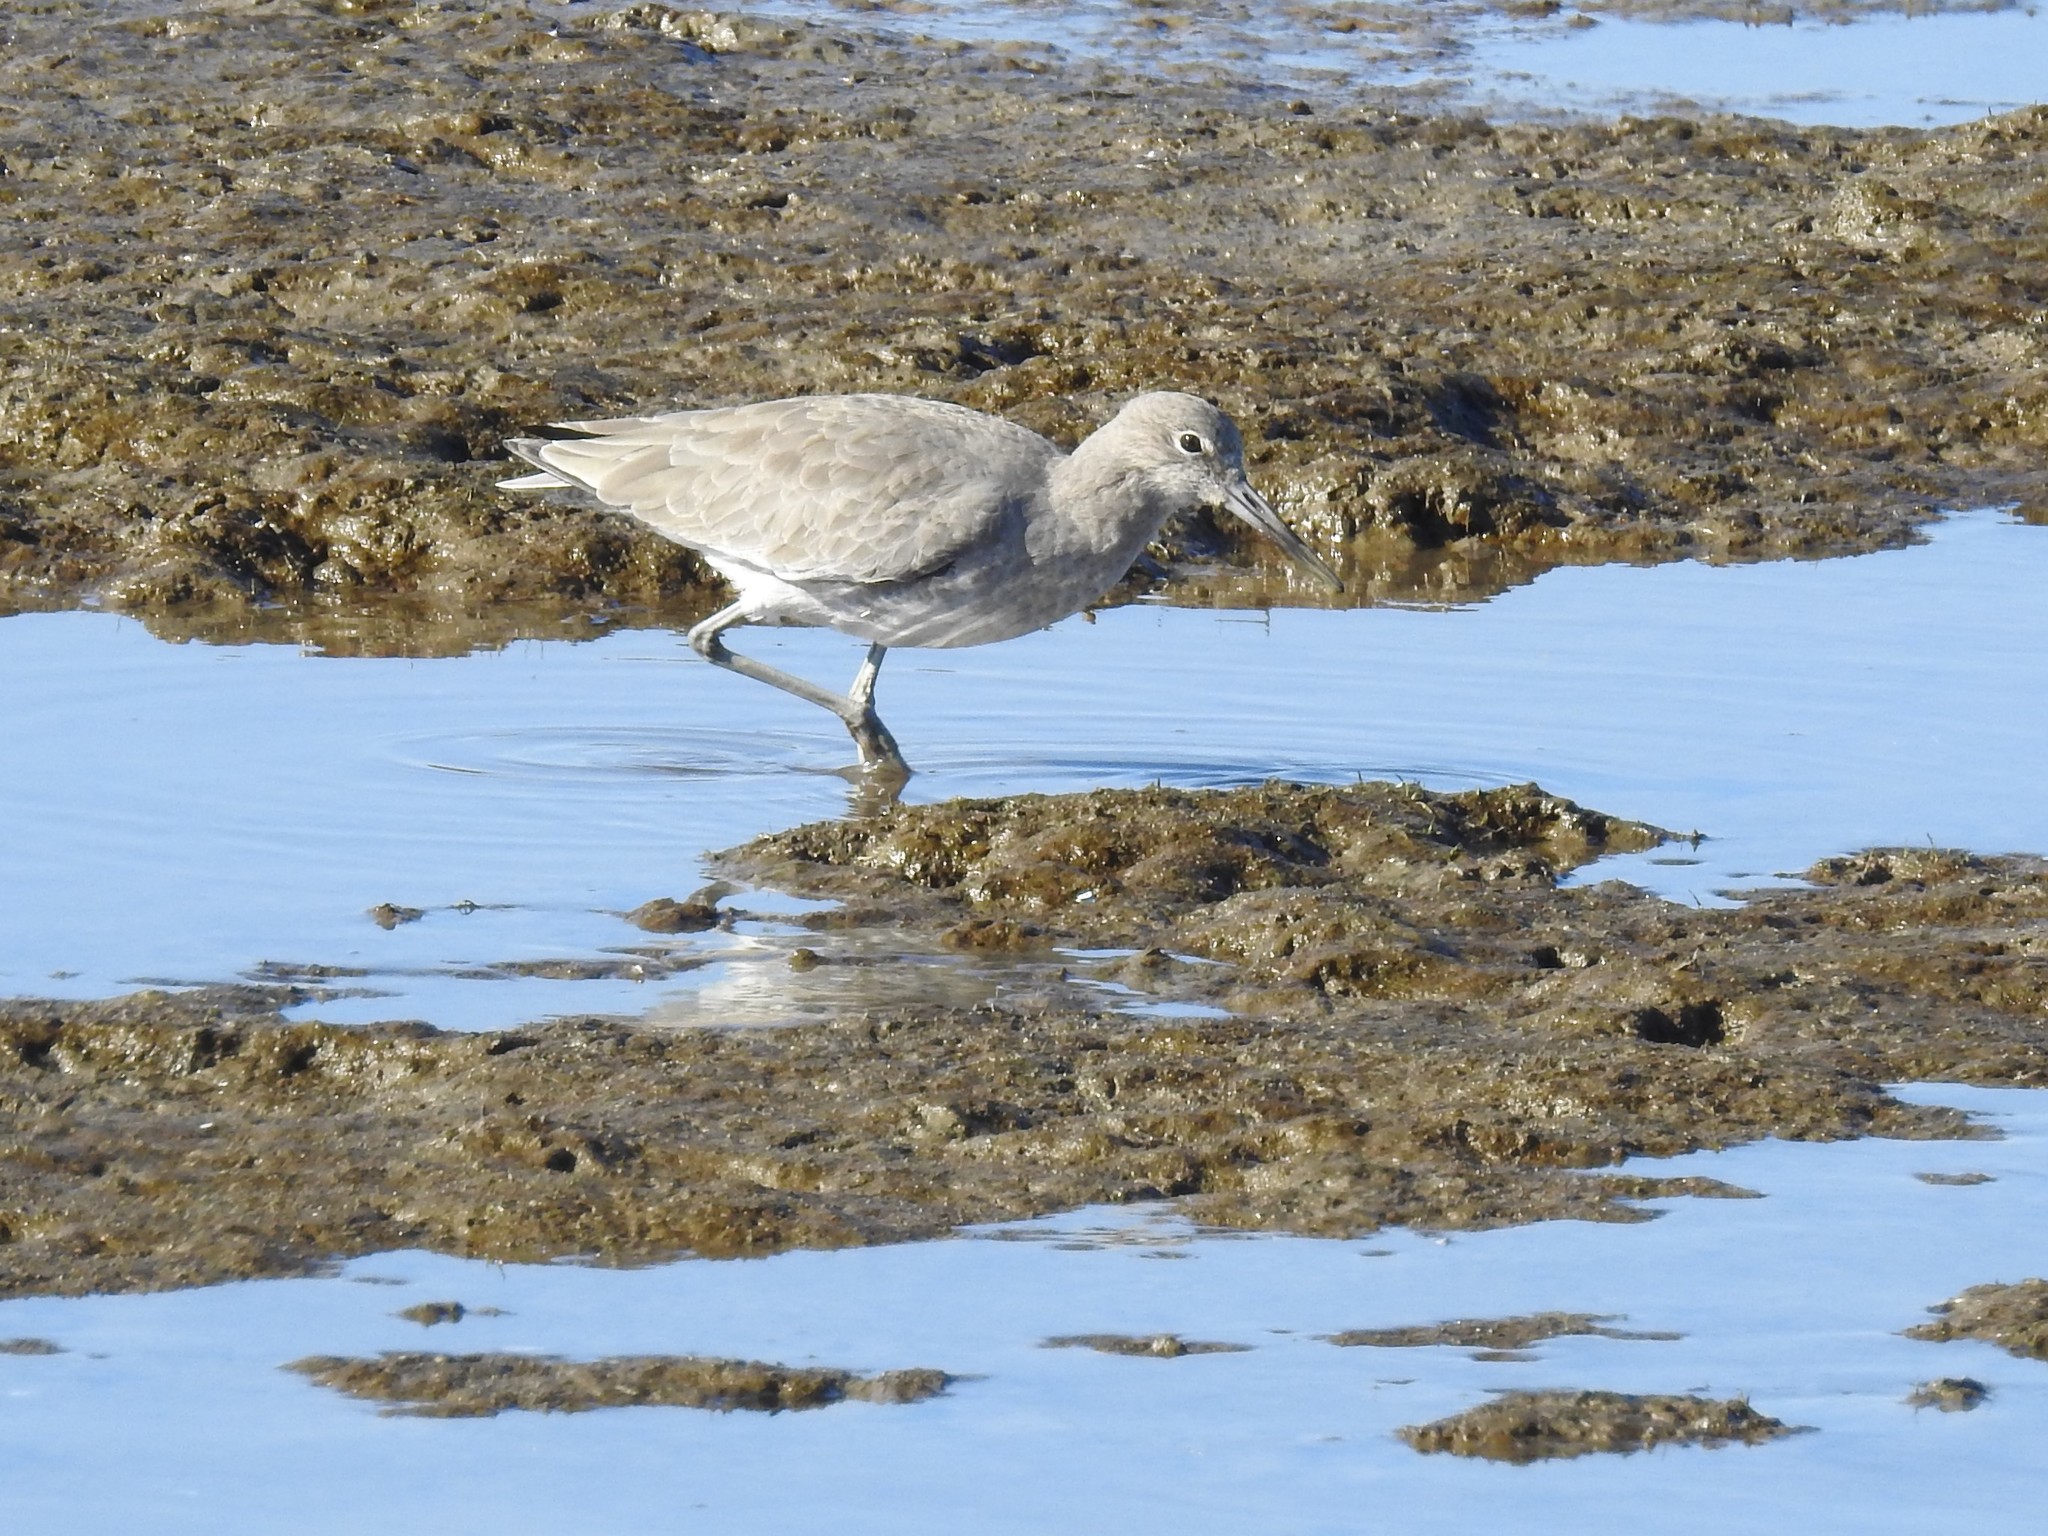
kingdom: Animalia
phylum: Chordata
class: Aves
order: Charadriiformes
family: Scolopacidae
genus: Tringa
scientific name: Tringa semipalmata
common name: Willet
